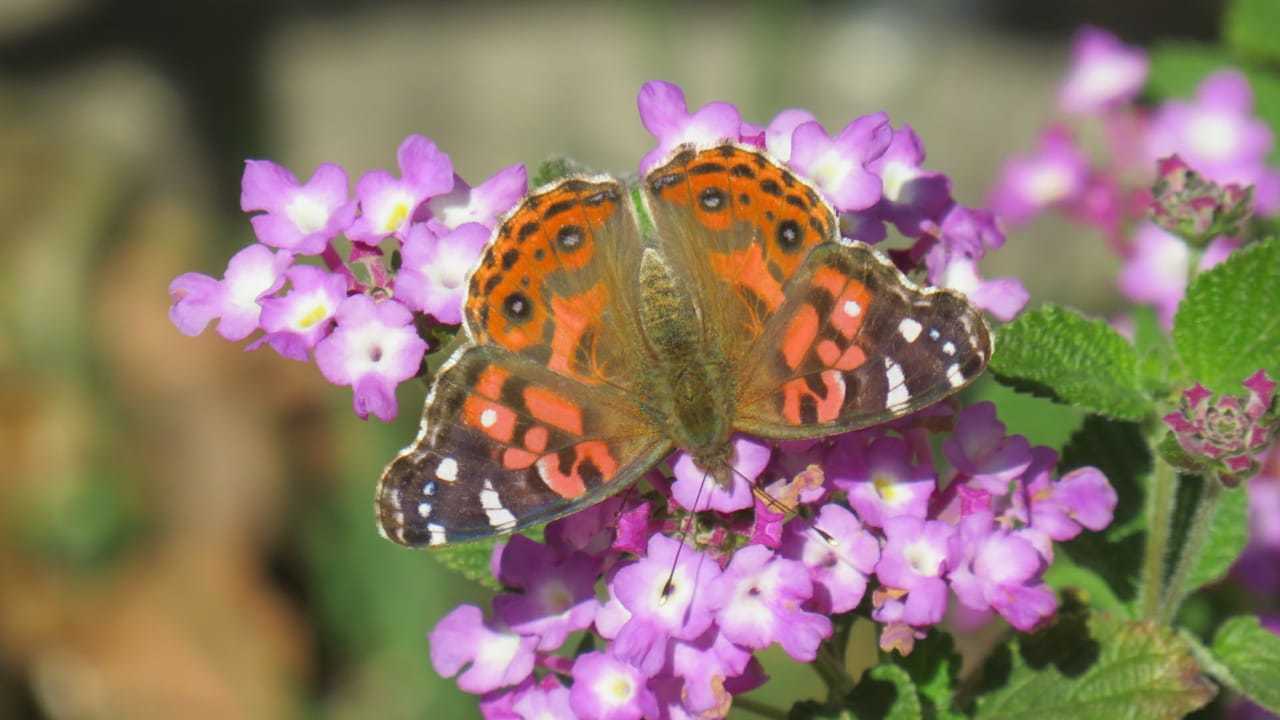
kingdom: Animalia
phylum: Arthropoda
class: Insecta
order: Lepidoptera
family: Nymphalidae
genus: Vanessa
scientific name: Vanessa braziliensis
